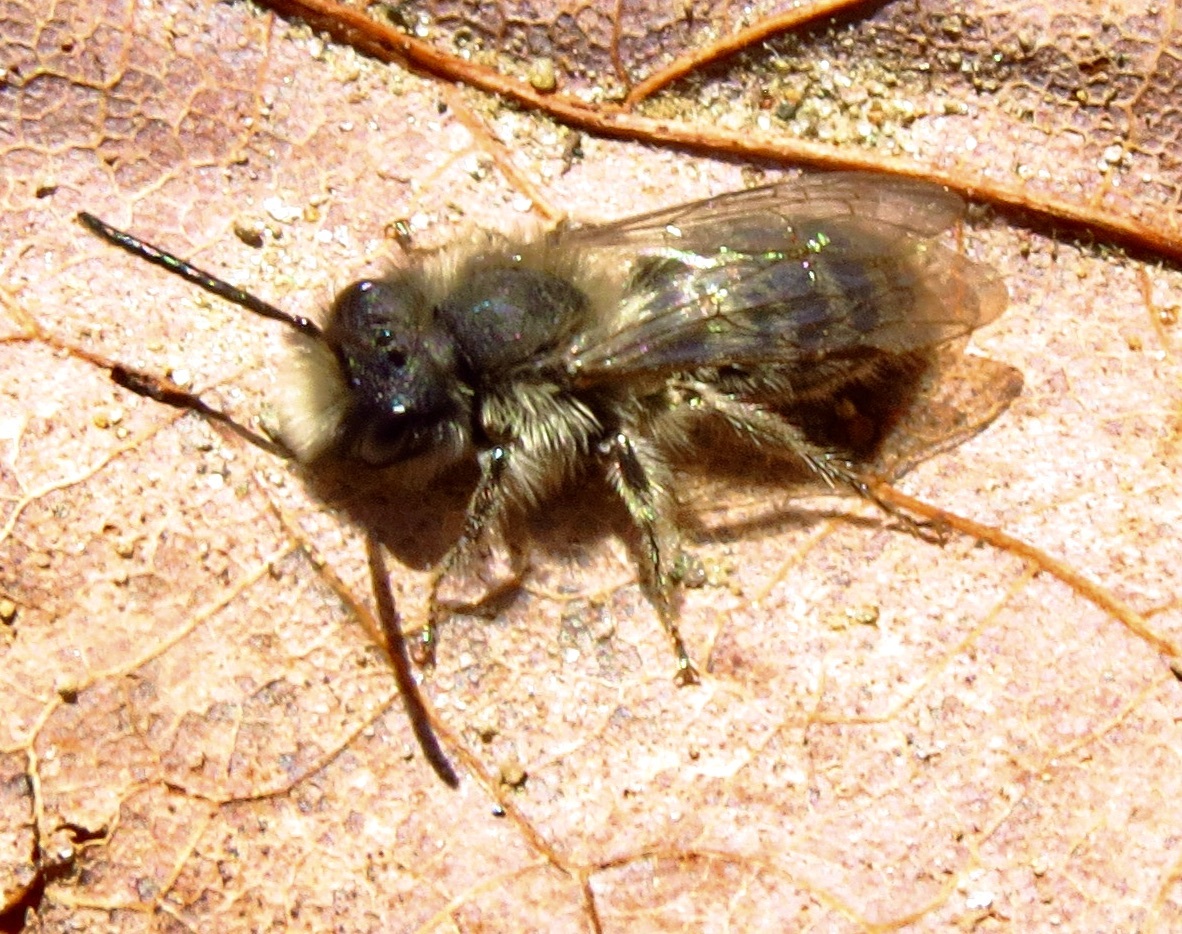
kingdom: Animalia
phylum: Arthropoda
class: Insecta
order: Hymenoptera
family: Andrenidae
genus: Andrena
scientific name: Andrena frigida
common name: Frigid mining bee
